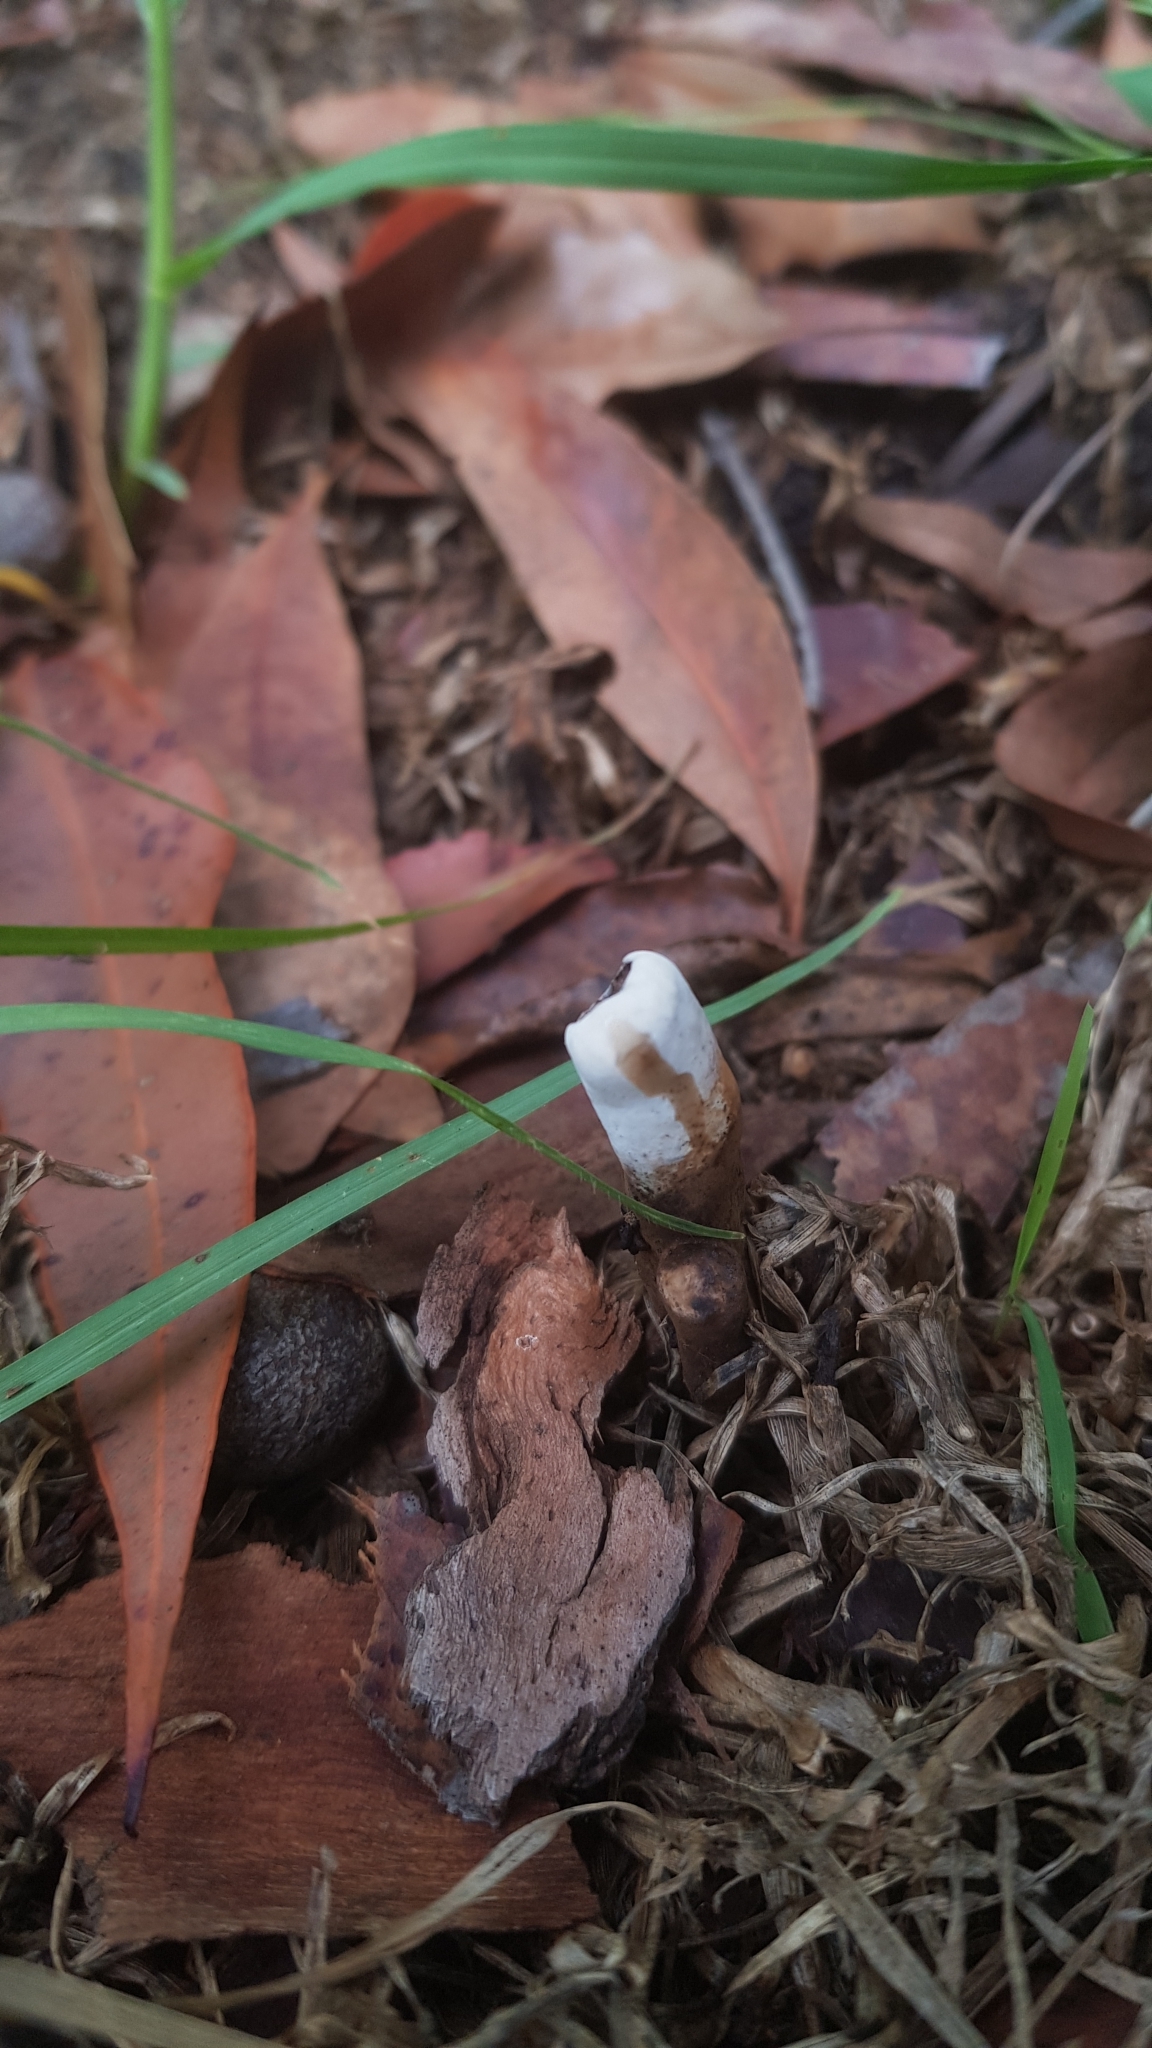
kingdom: Fungi
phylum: Basidiomycota
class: Agaricomycetes
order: Polyporales
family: Ganodermataceae
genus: Sanguinoderma
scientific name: Sanguinoderma rude
